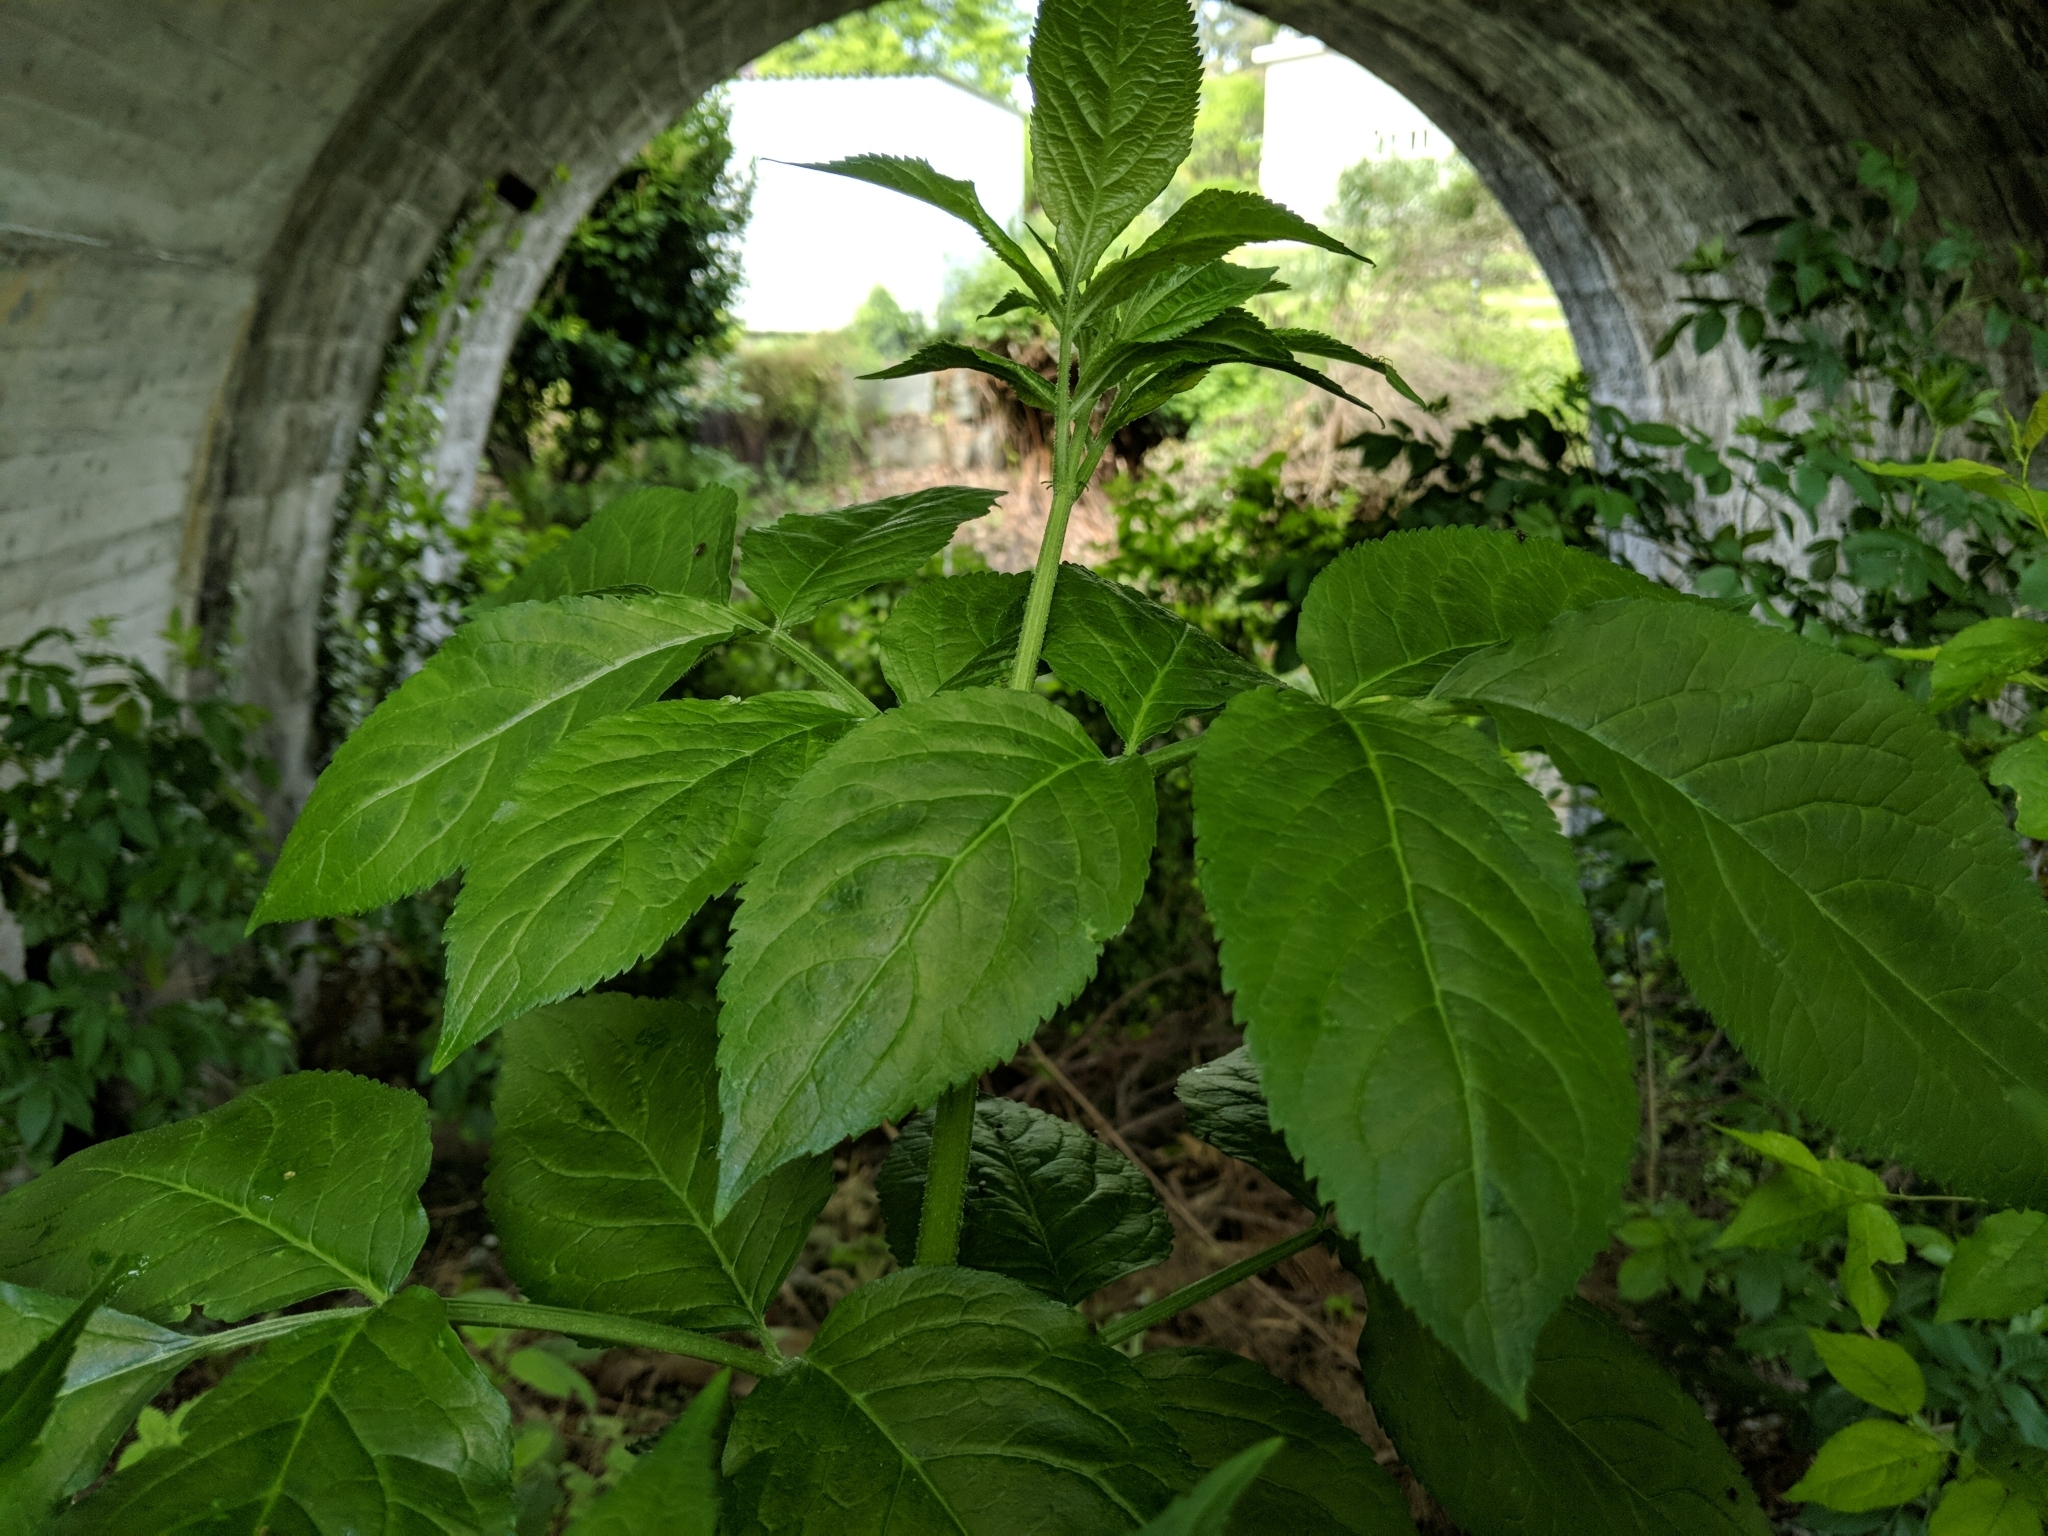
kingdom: Plantae
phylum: Tracheophyta
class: Magnoliopsida
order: Dipsacales
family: Viburnaceae
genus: Sambucus
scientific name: Sambucus nigra
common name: Elder
